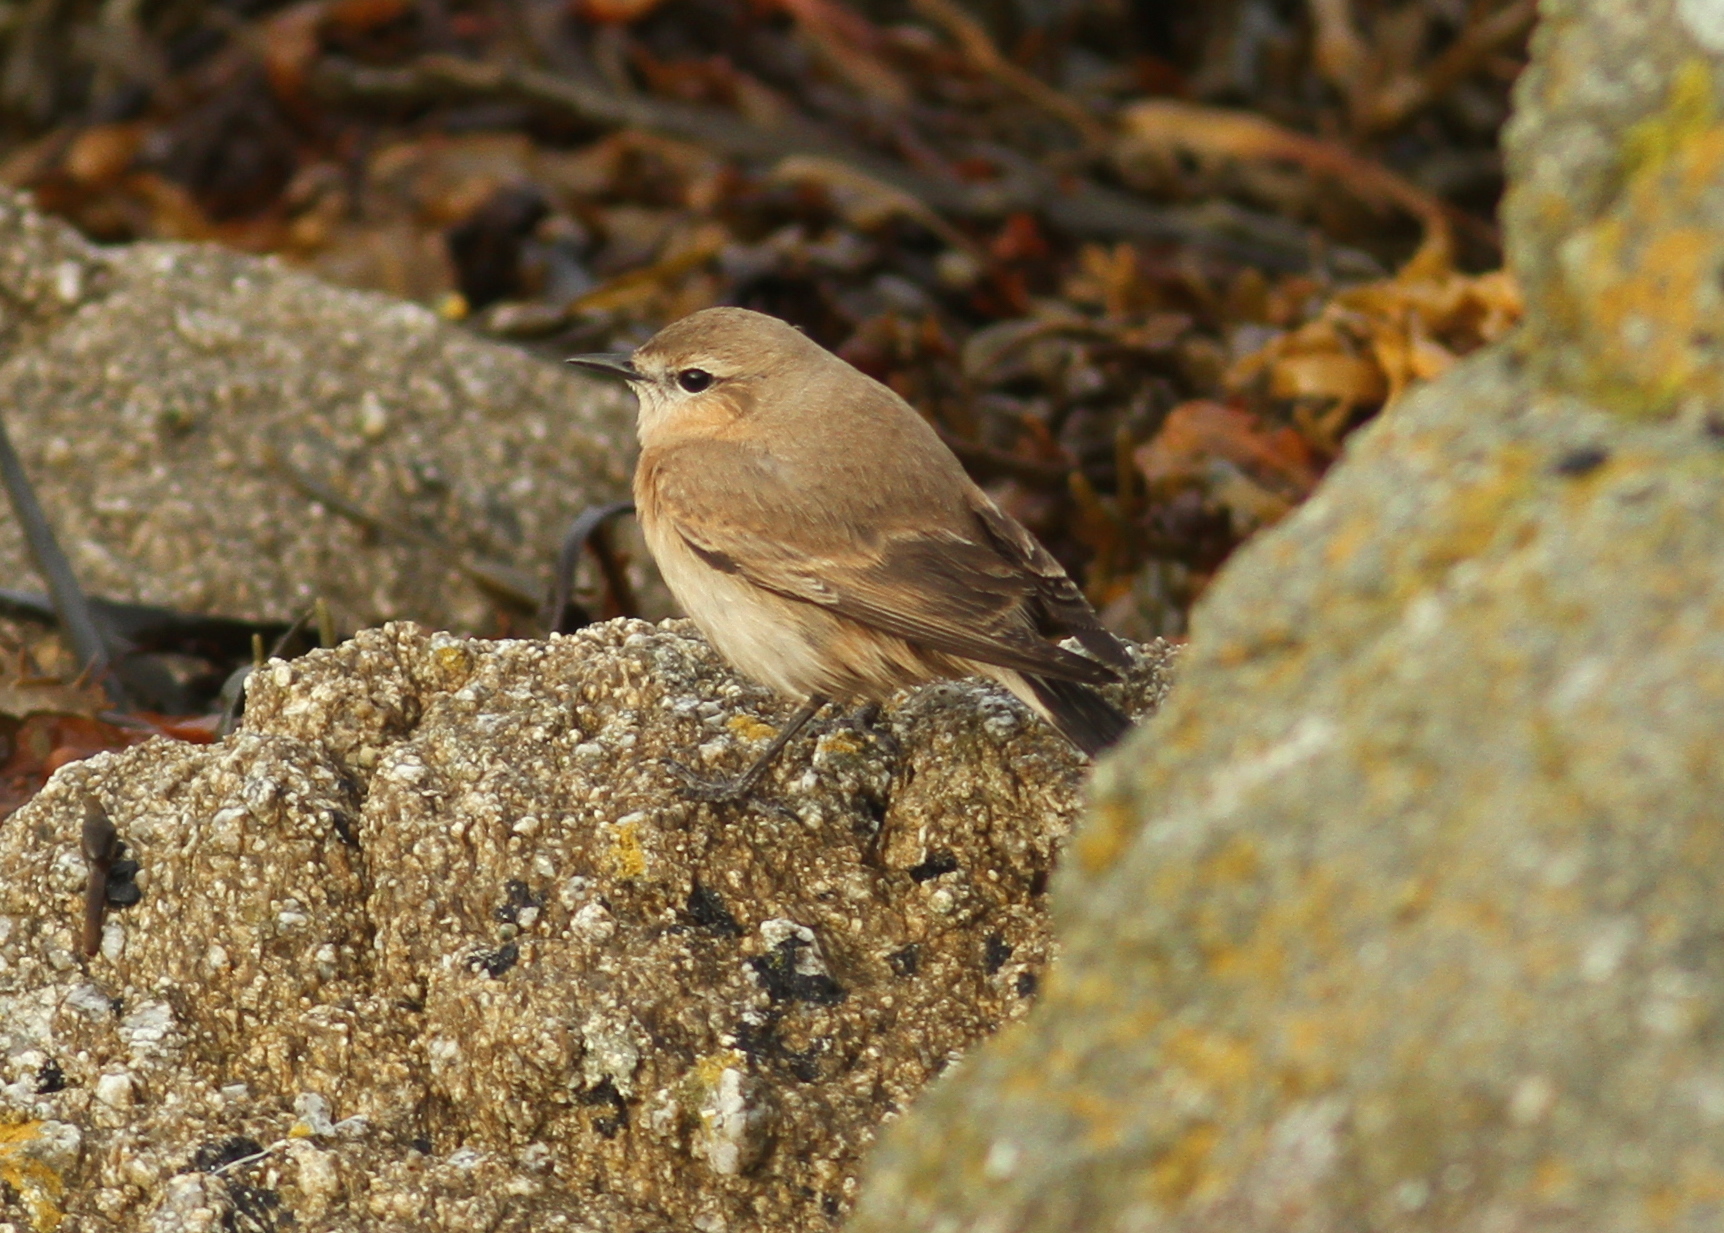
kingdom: Animalia
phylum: Chordata
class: Aves
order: Passeriformes
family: Muscicapidae
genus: Oenanthe
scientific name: Oenanthe isabellina
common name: Isabelline wheatear
